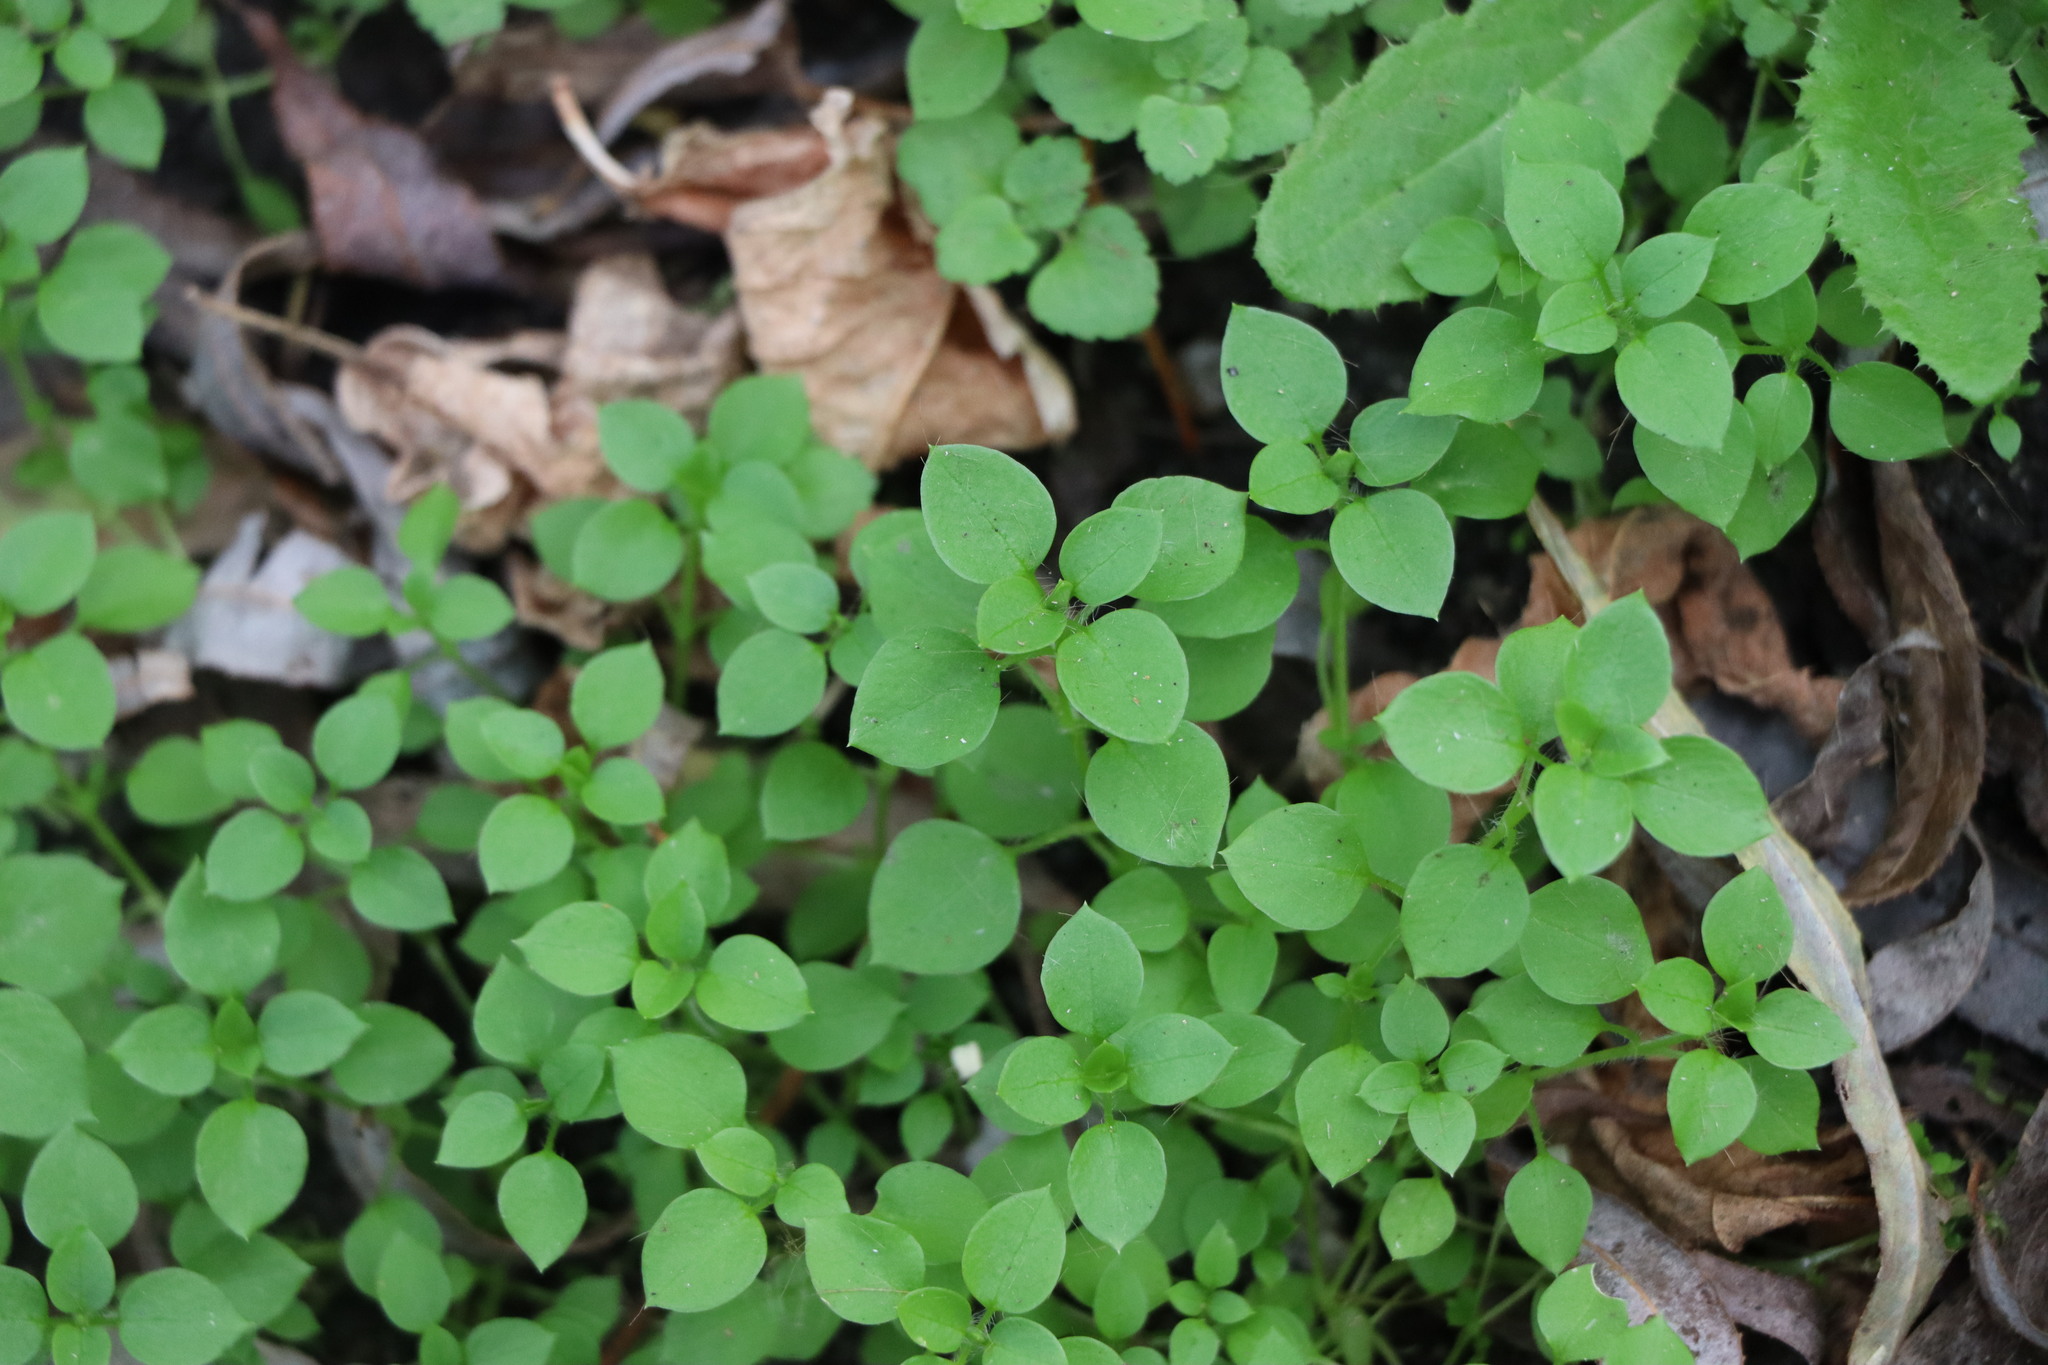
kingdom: Plantae
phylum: Tracheophyta
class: Magnoliopsida
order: Caryophyllales
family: Caryophyllaceae
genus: Stellaria
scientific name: Stellaria media
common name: Common chickweed
